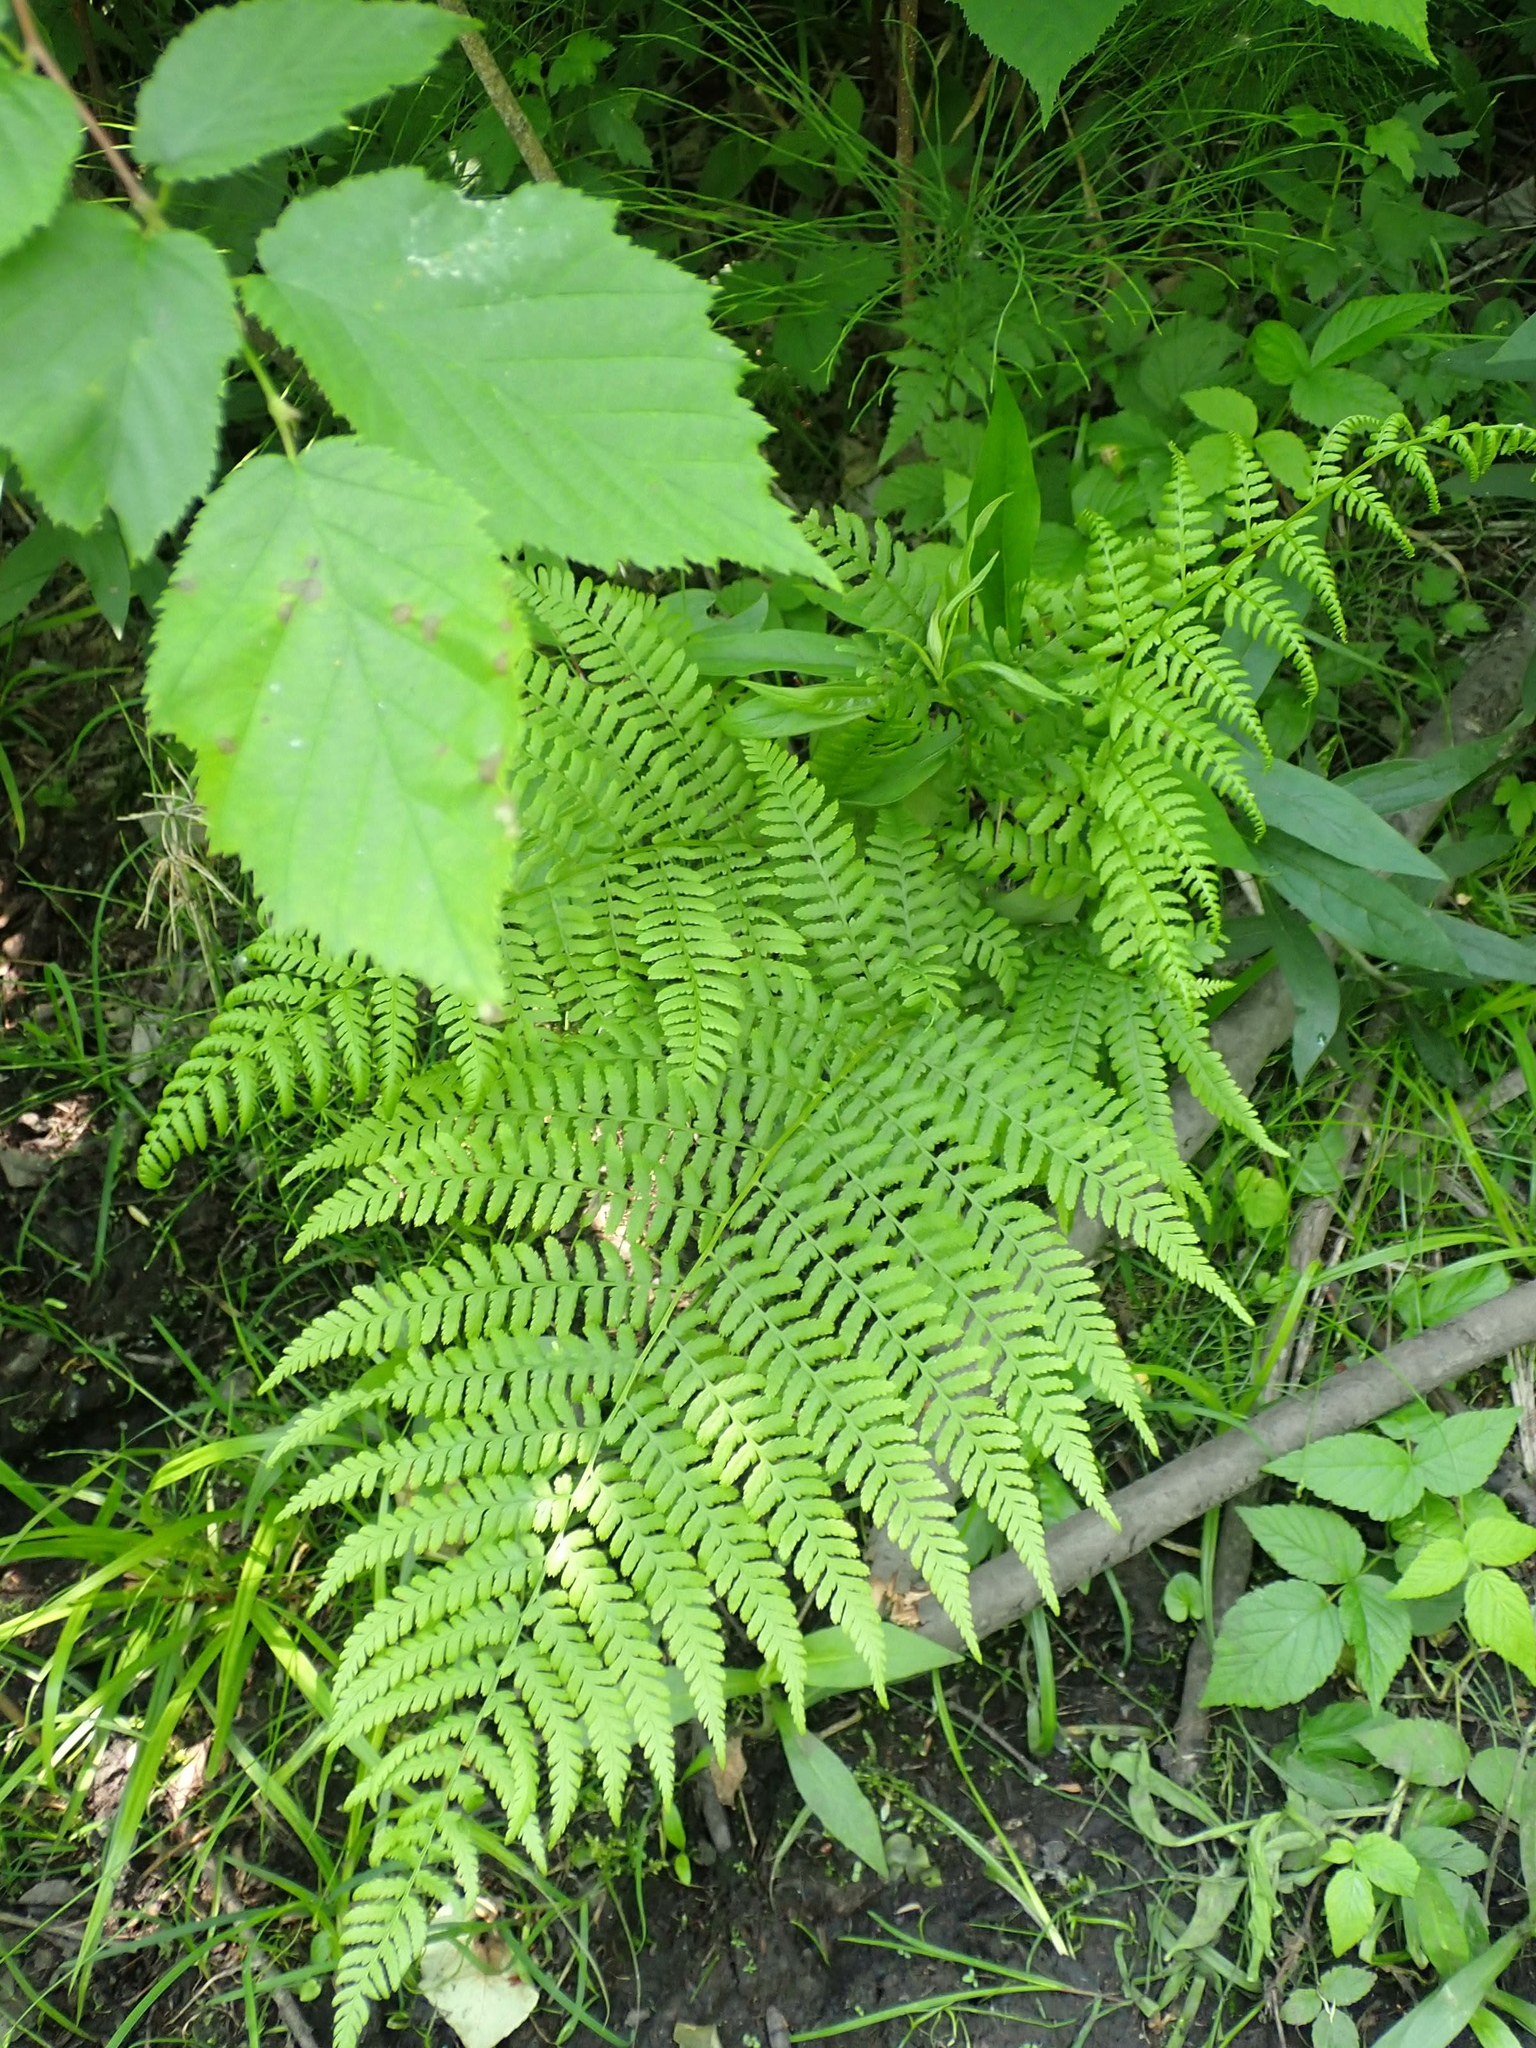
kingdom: Plantae
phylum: Tracheophyta
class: Polypodiopsida
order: Polypodiales
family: Athyriaceae
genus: Athyrium
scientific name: Athyrium angustum
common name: Northern lady fern
